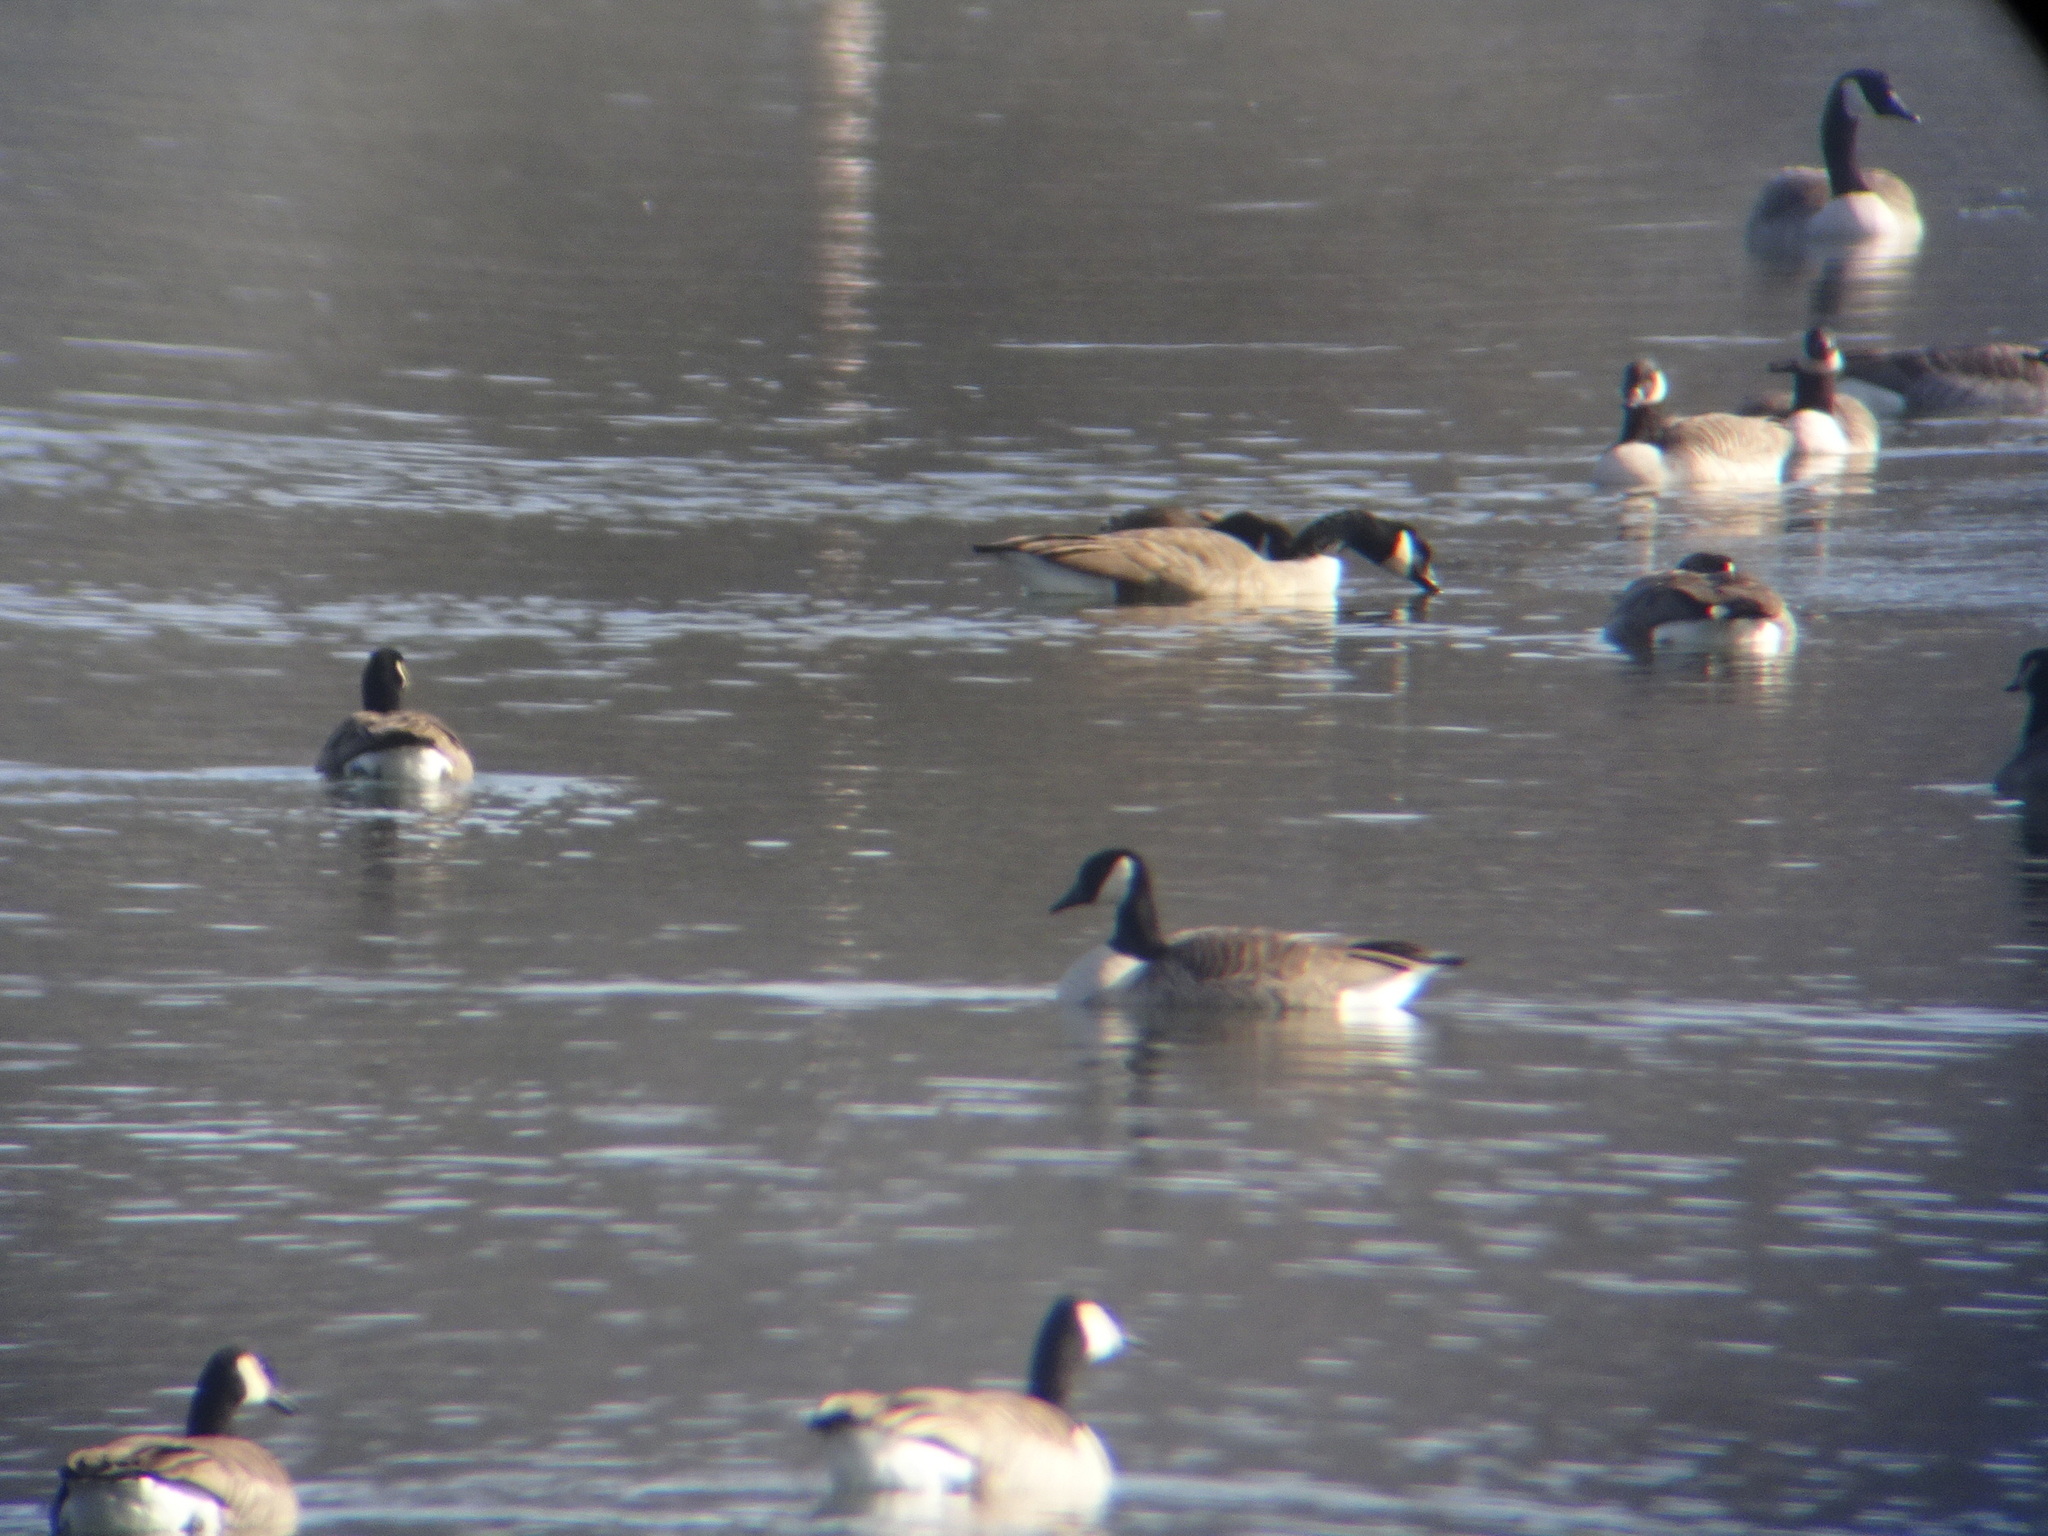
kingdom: Animalia
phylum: Chordata
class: Aves
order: Anseriformes
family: Anatidae
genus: Branta
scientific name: Branta hutchinsii
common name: Cackling goose
